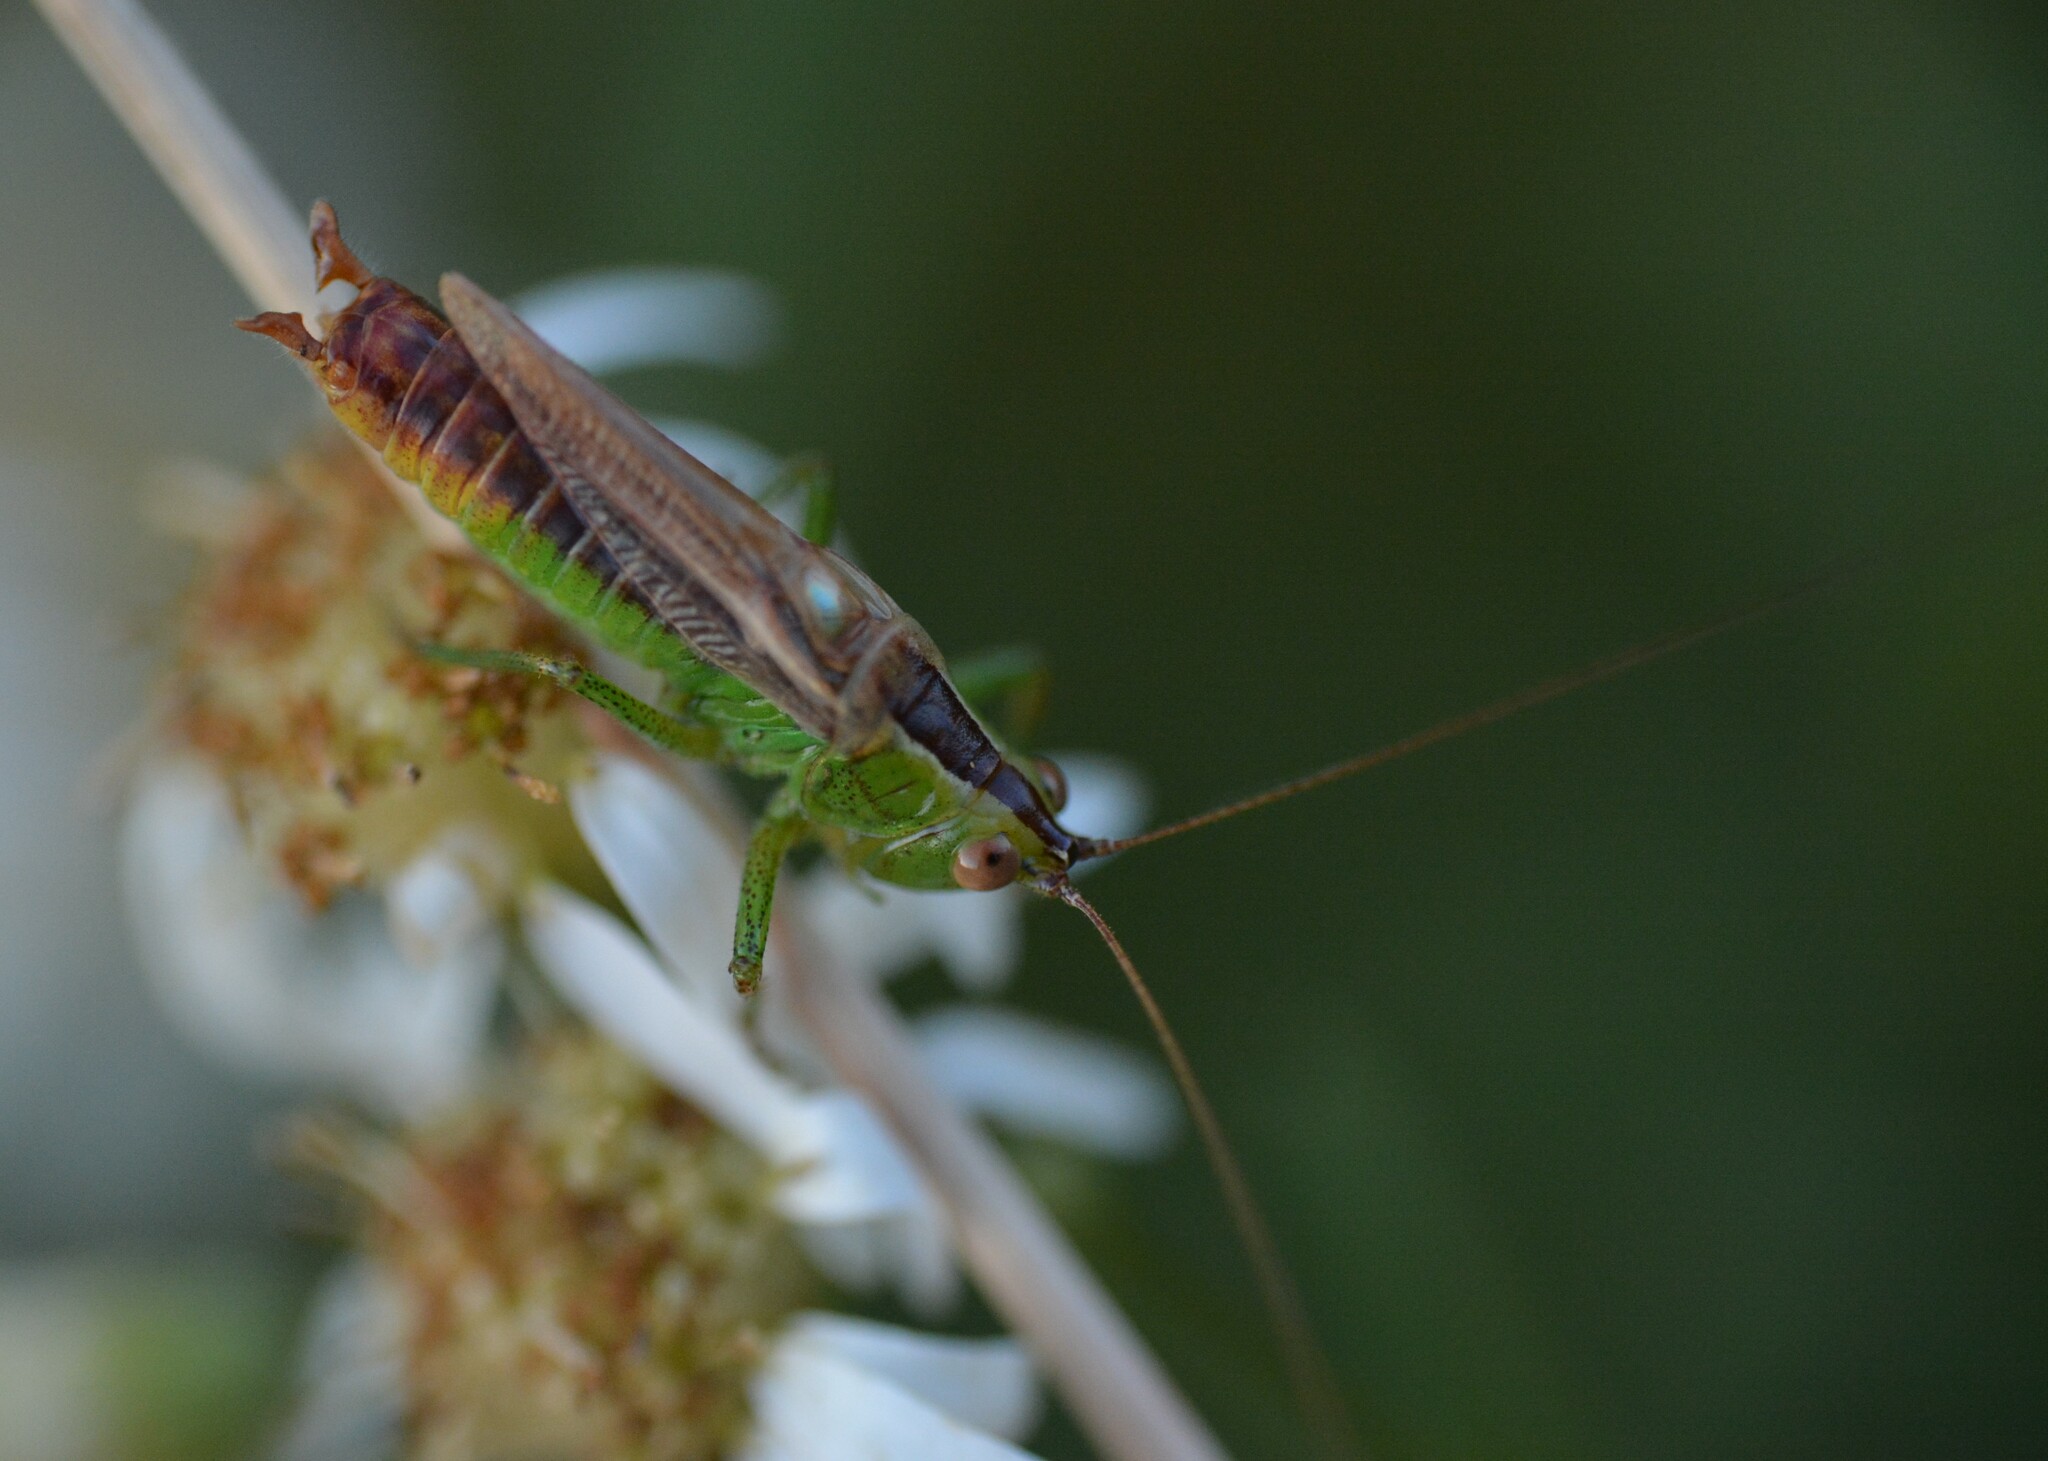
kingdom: Animalia
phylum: Arthropoda
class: Insecta
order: Orthoptera
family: Tettigoniidae
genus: Conocephalus
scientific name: Conocephalus brevipennis
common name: Short-winged meadow katydid
